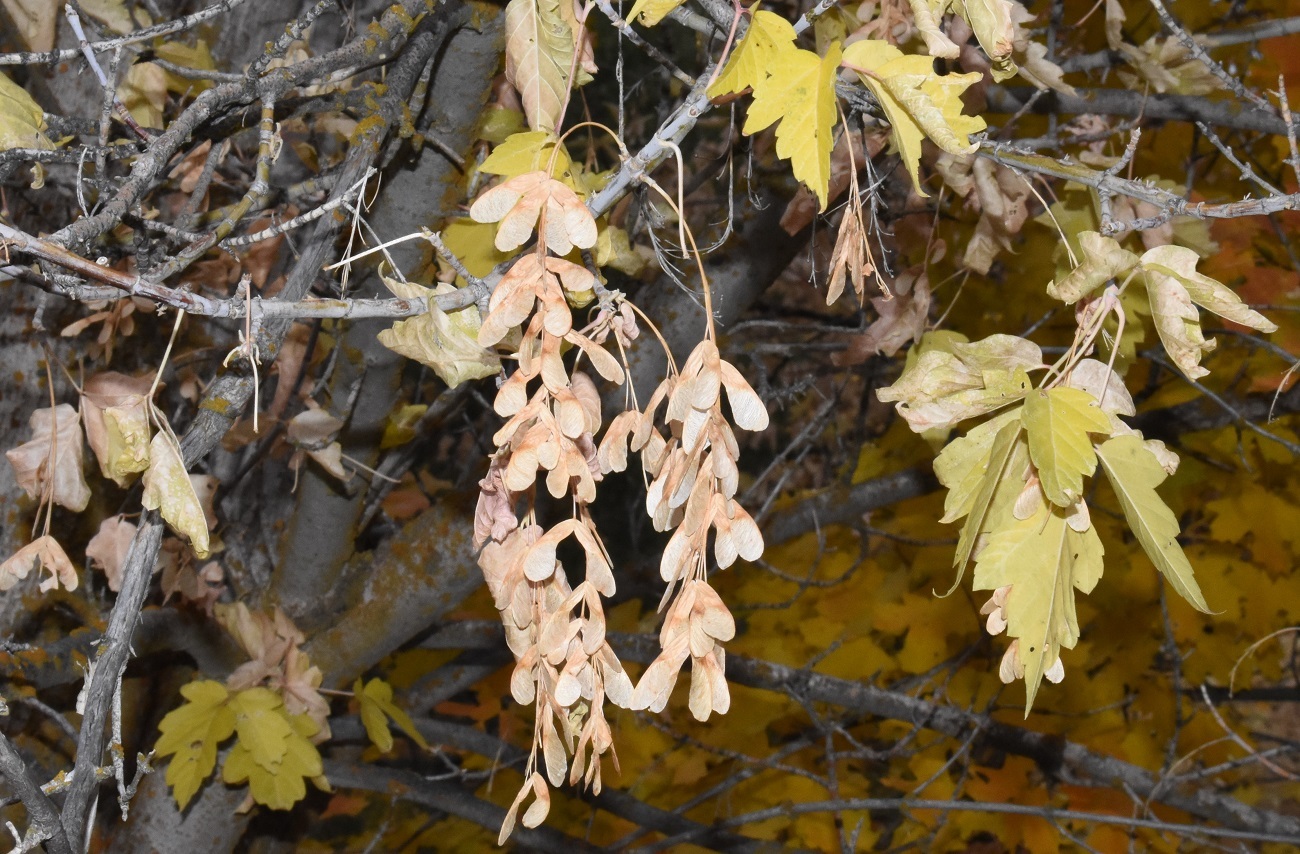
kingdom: Plantae
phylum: Tracheophyta
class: Magnoliopsida
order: Sapindales
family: Sapindaceae
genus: Acer
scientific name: Acer negundo
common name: Ashleaf maple
